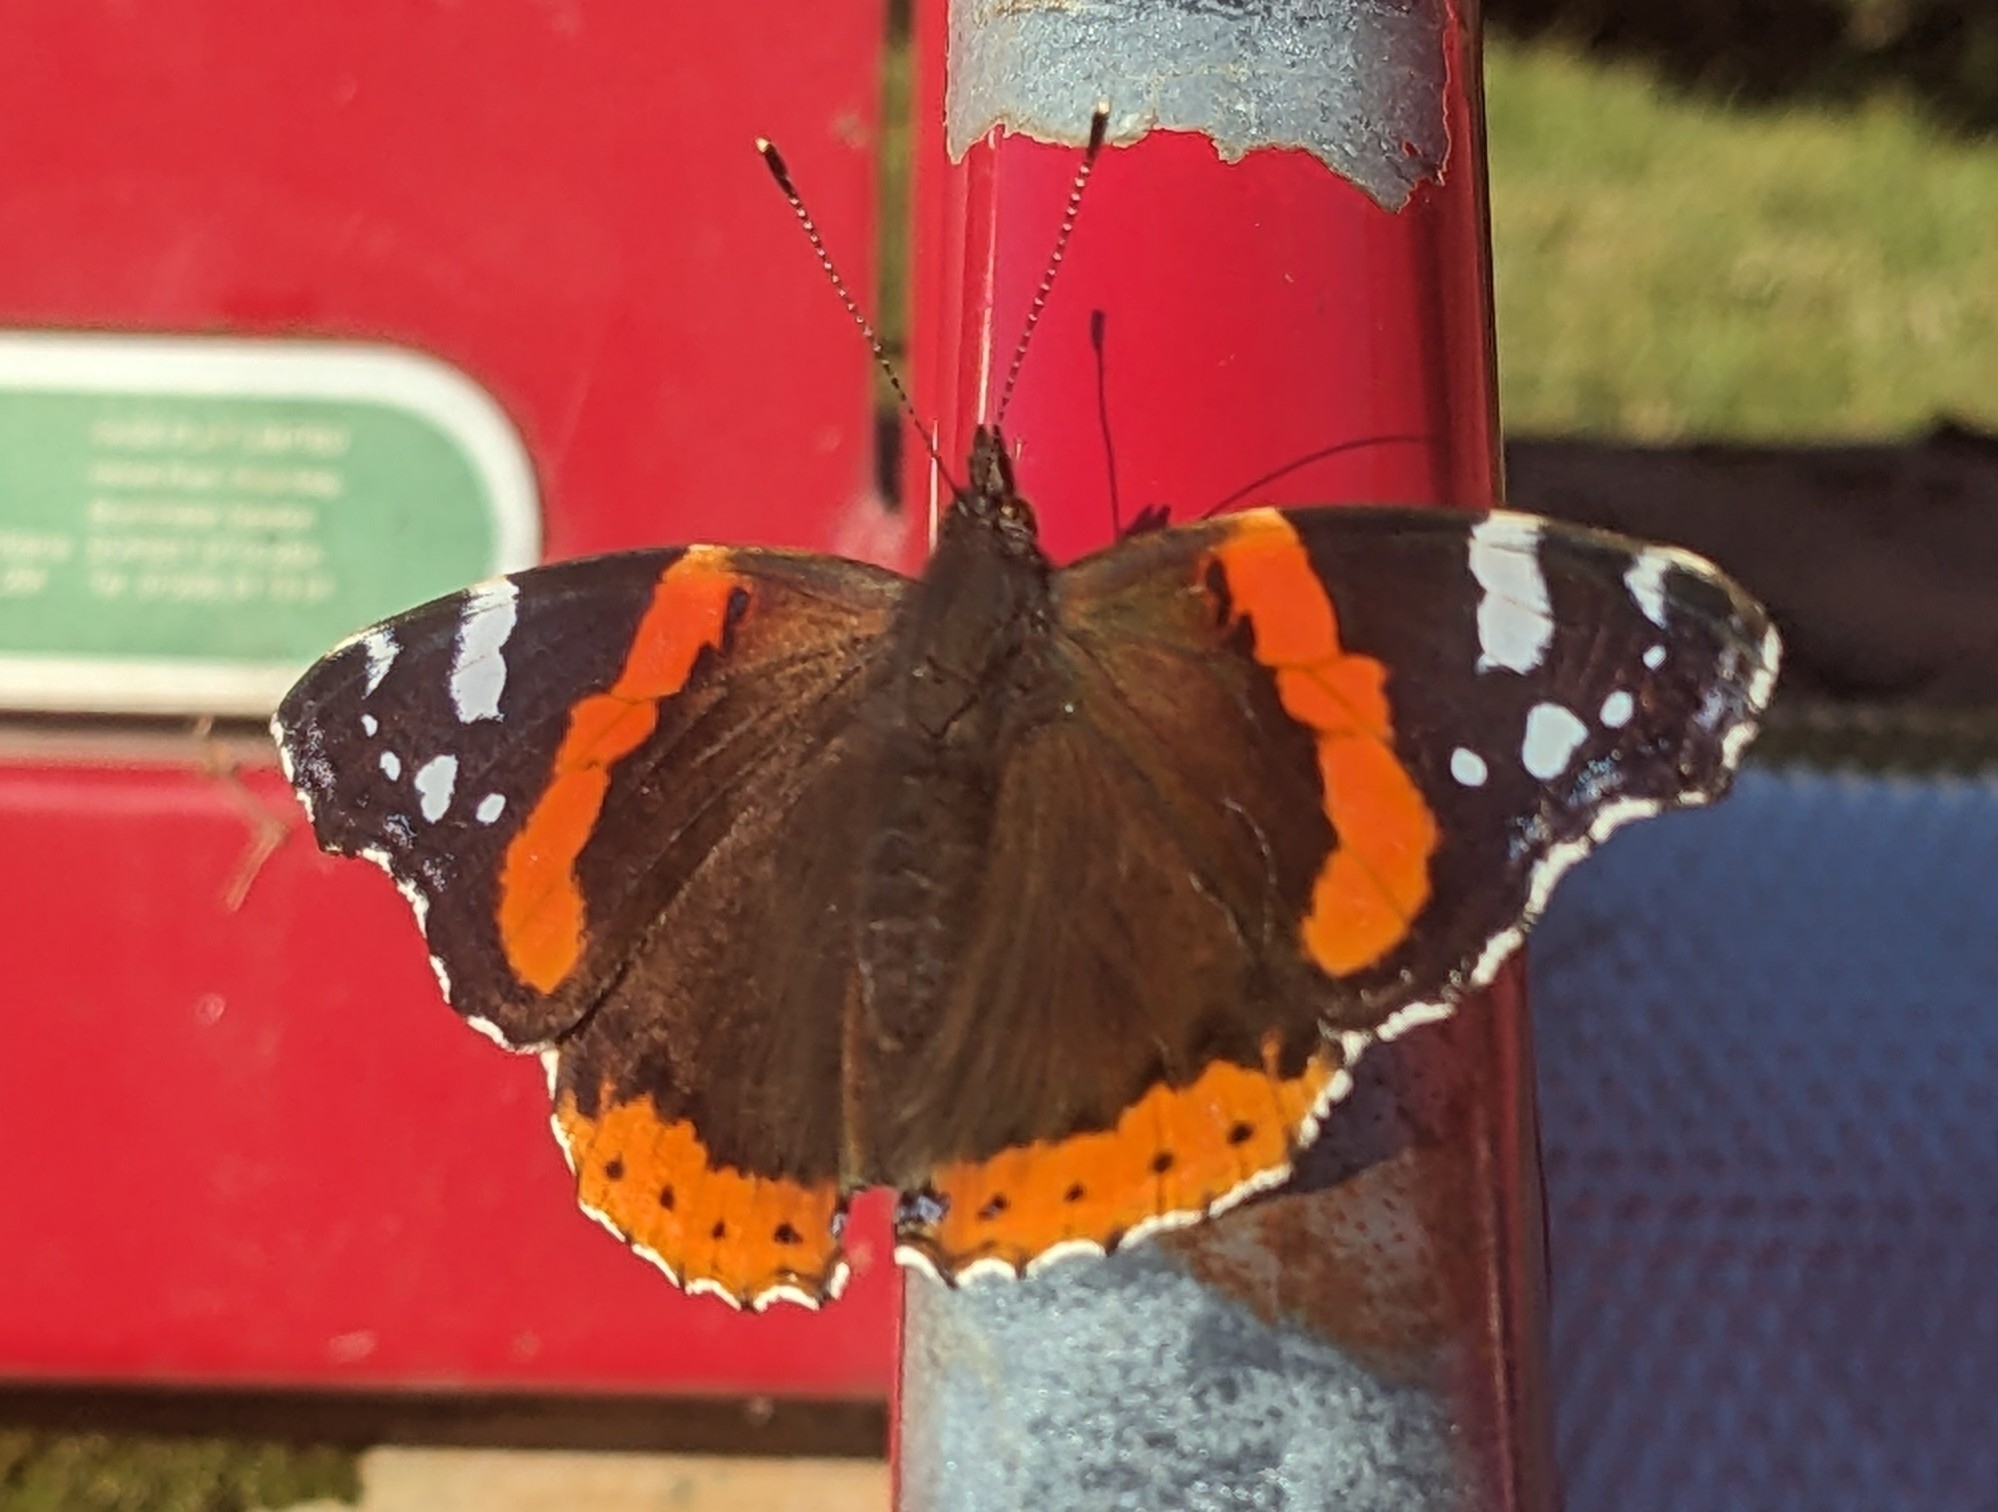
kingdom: Animalia
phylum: Arthropoda
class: Insecta
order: Lepidoptera
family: Nymphalidae
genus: Vanessa
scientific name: Vanessa atalanta
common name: Red admiral
